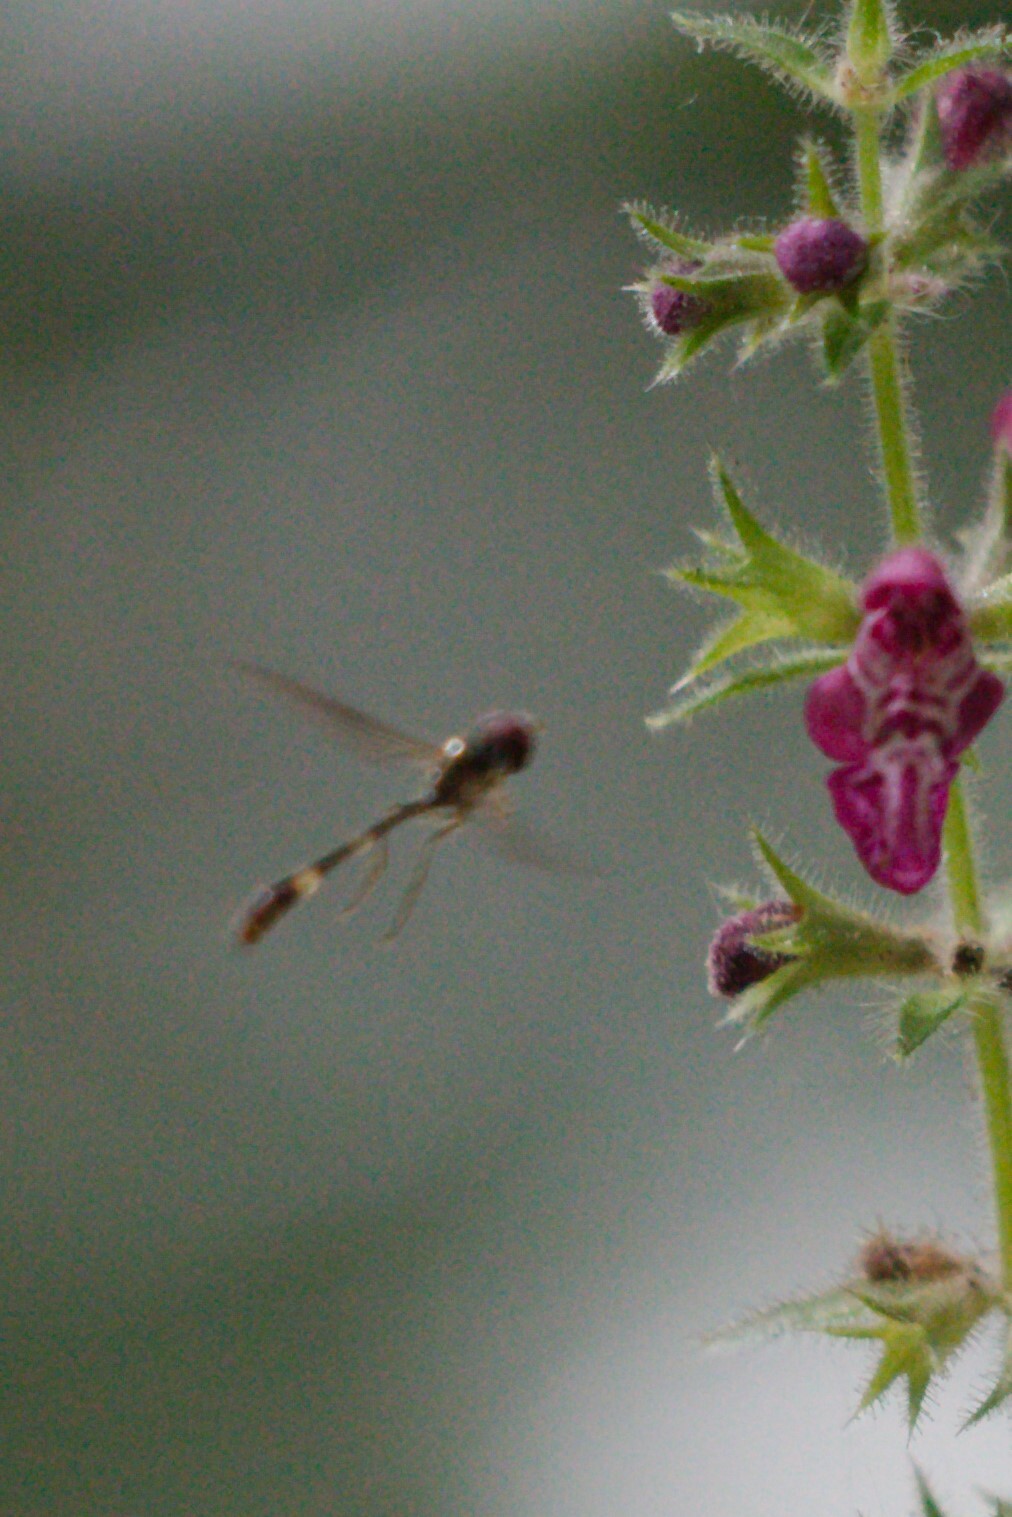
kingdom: Animalia
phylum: Arthropoda
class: Insecta
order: Diptera
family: Syrphidae
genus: Baccha
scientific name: Baccha elongata
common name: Common dainty
